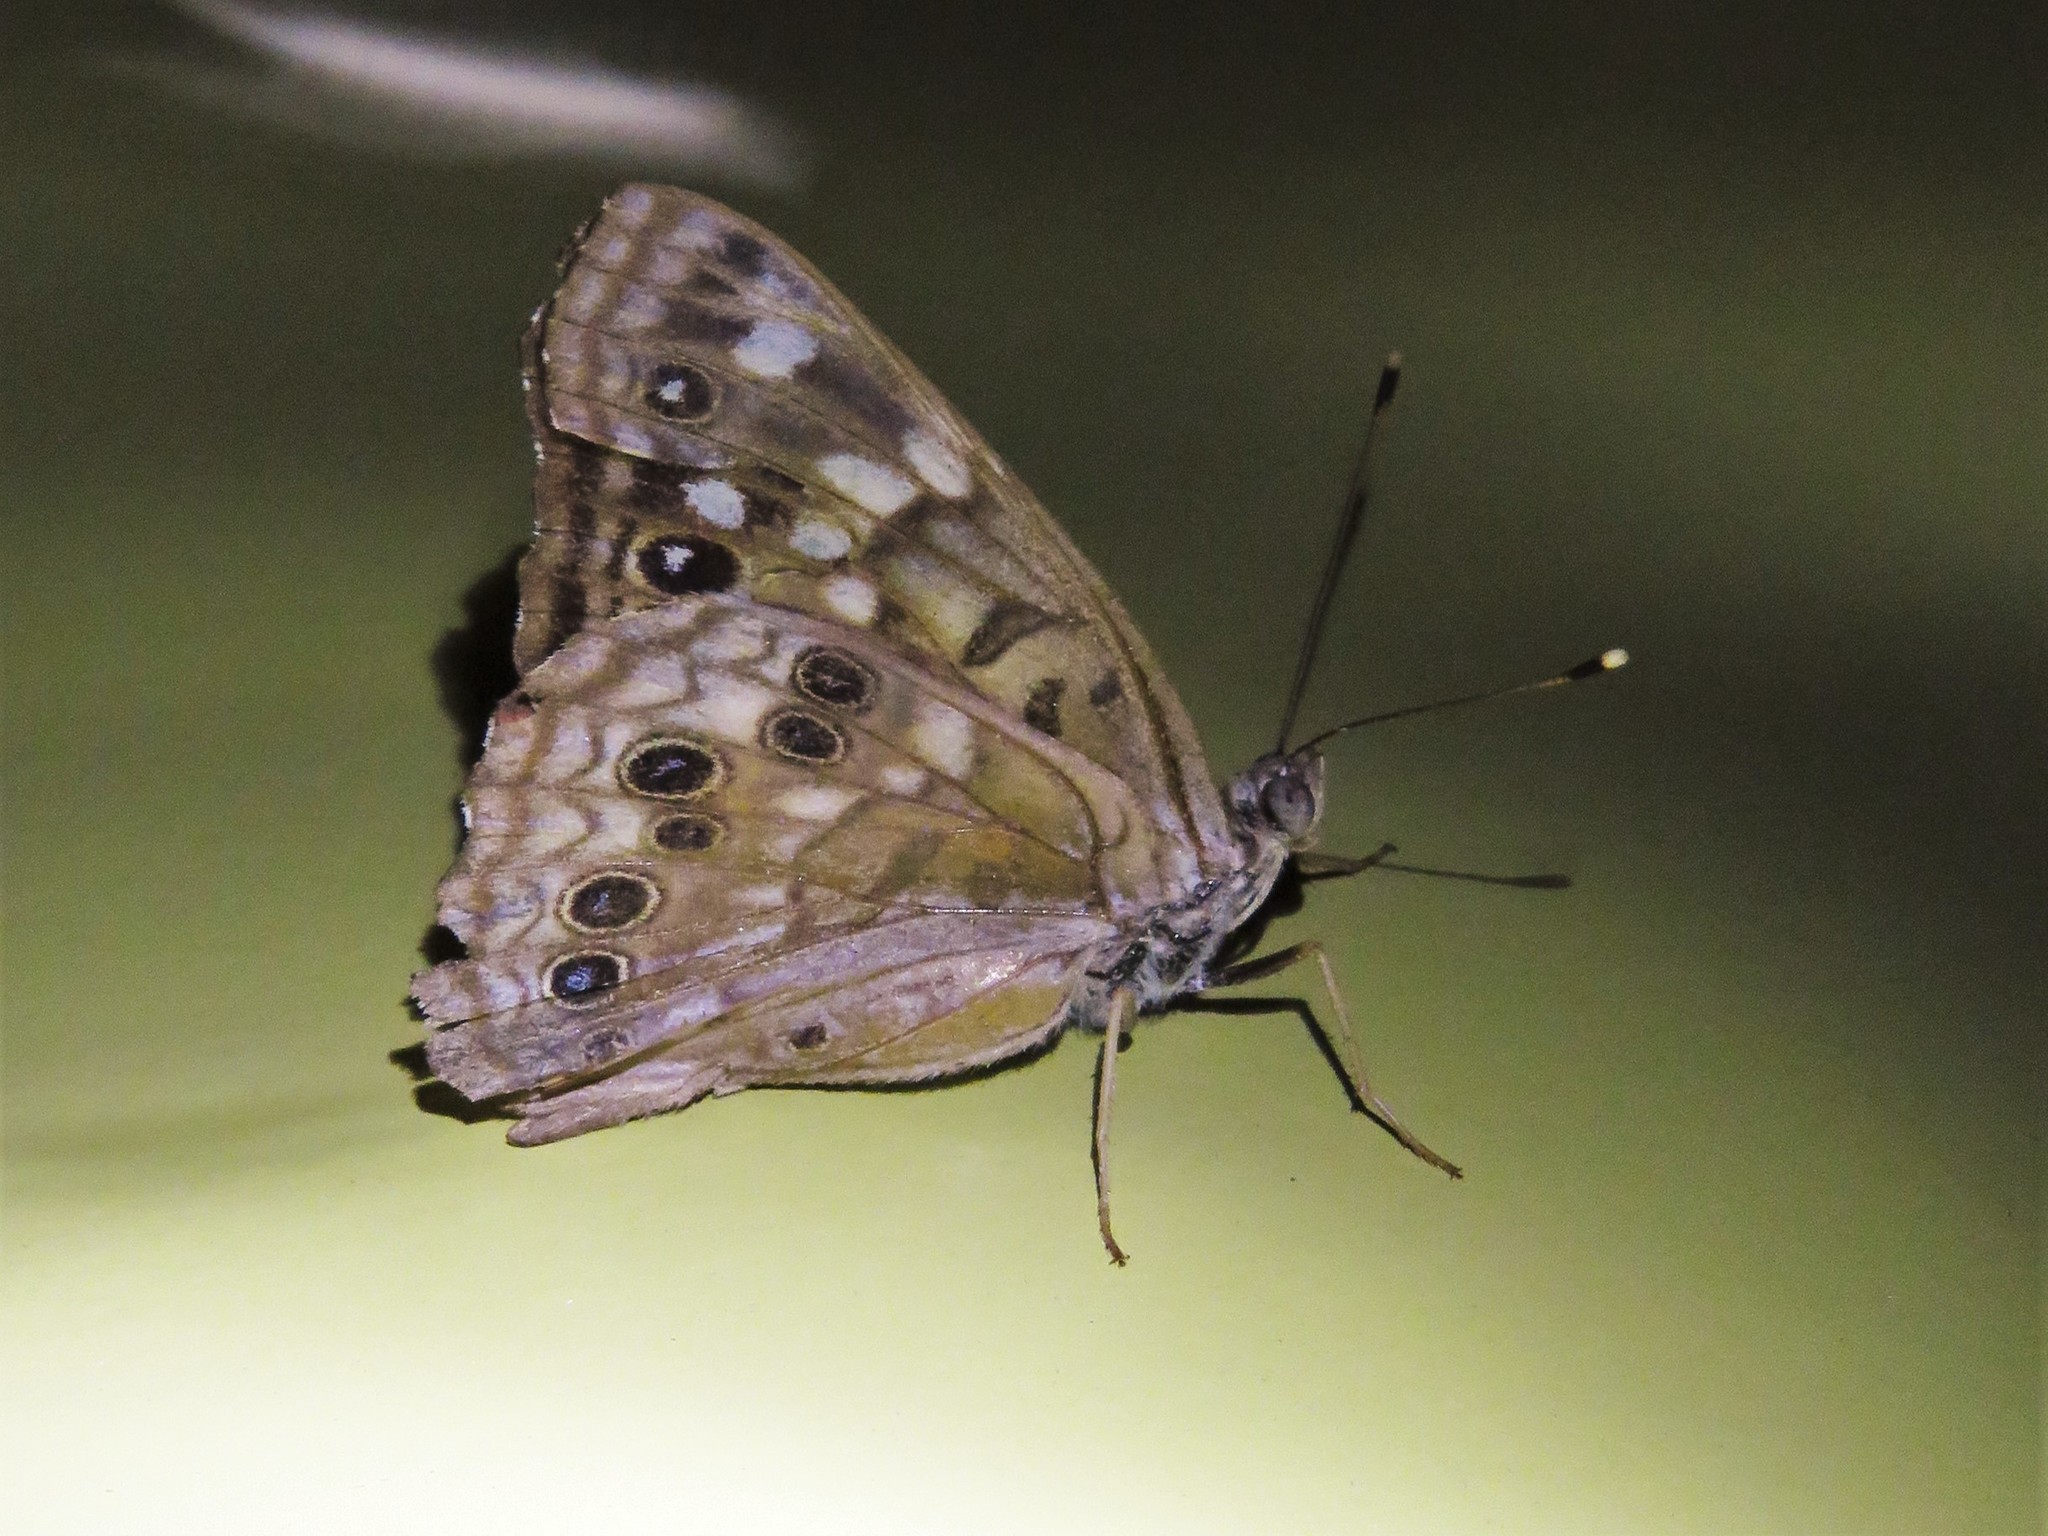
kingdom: Animalia
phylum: Arthropoda
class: Insecta
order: Lepidoptera
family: Nymphalidae
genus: Asterocampa
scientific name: Asterocampa celtis
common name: Hackberry emperor
